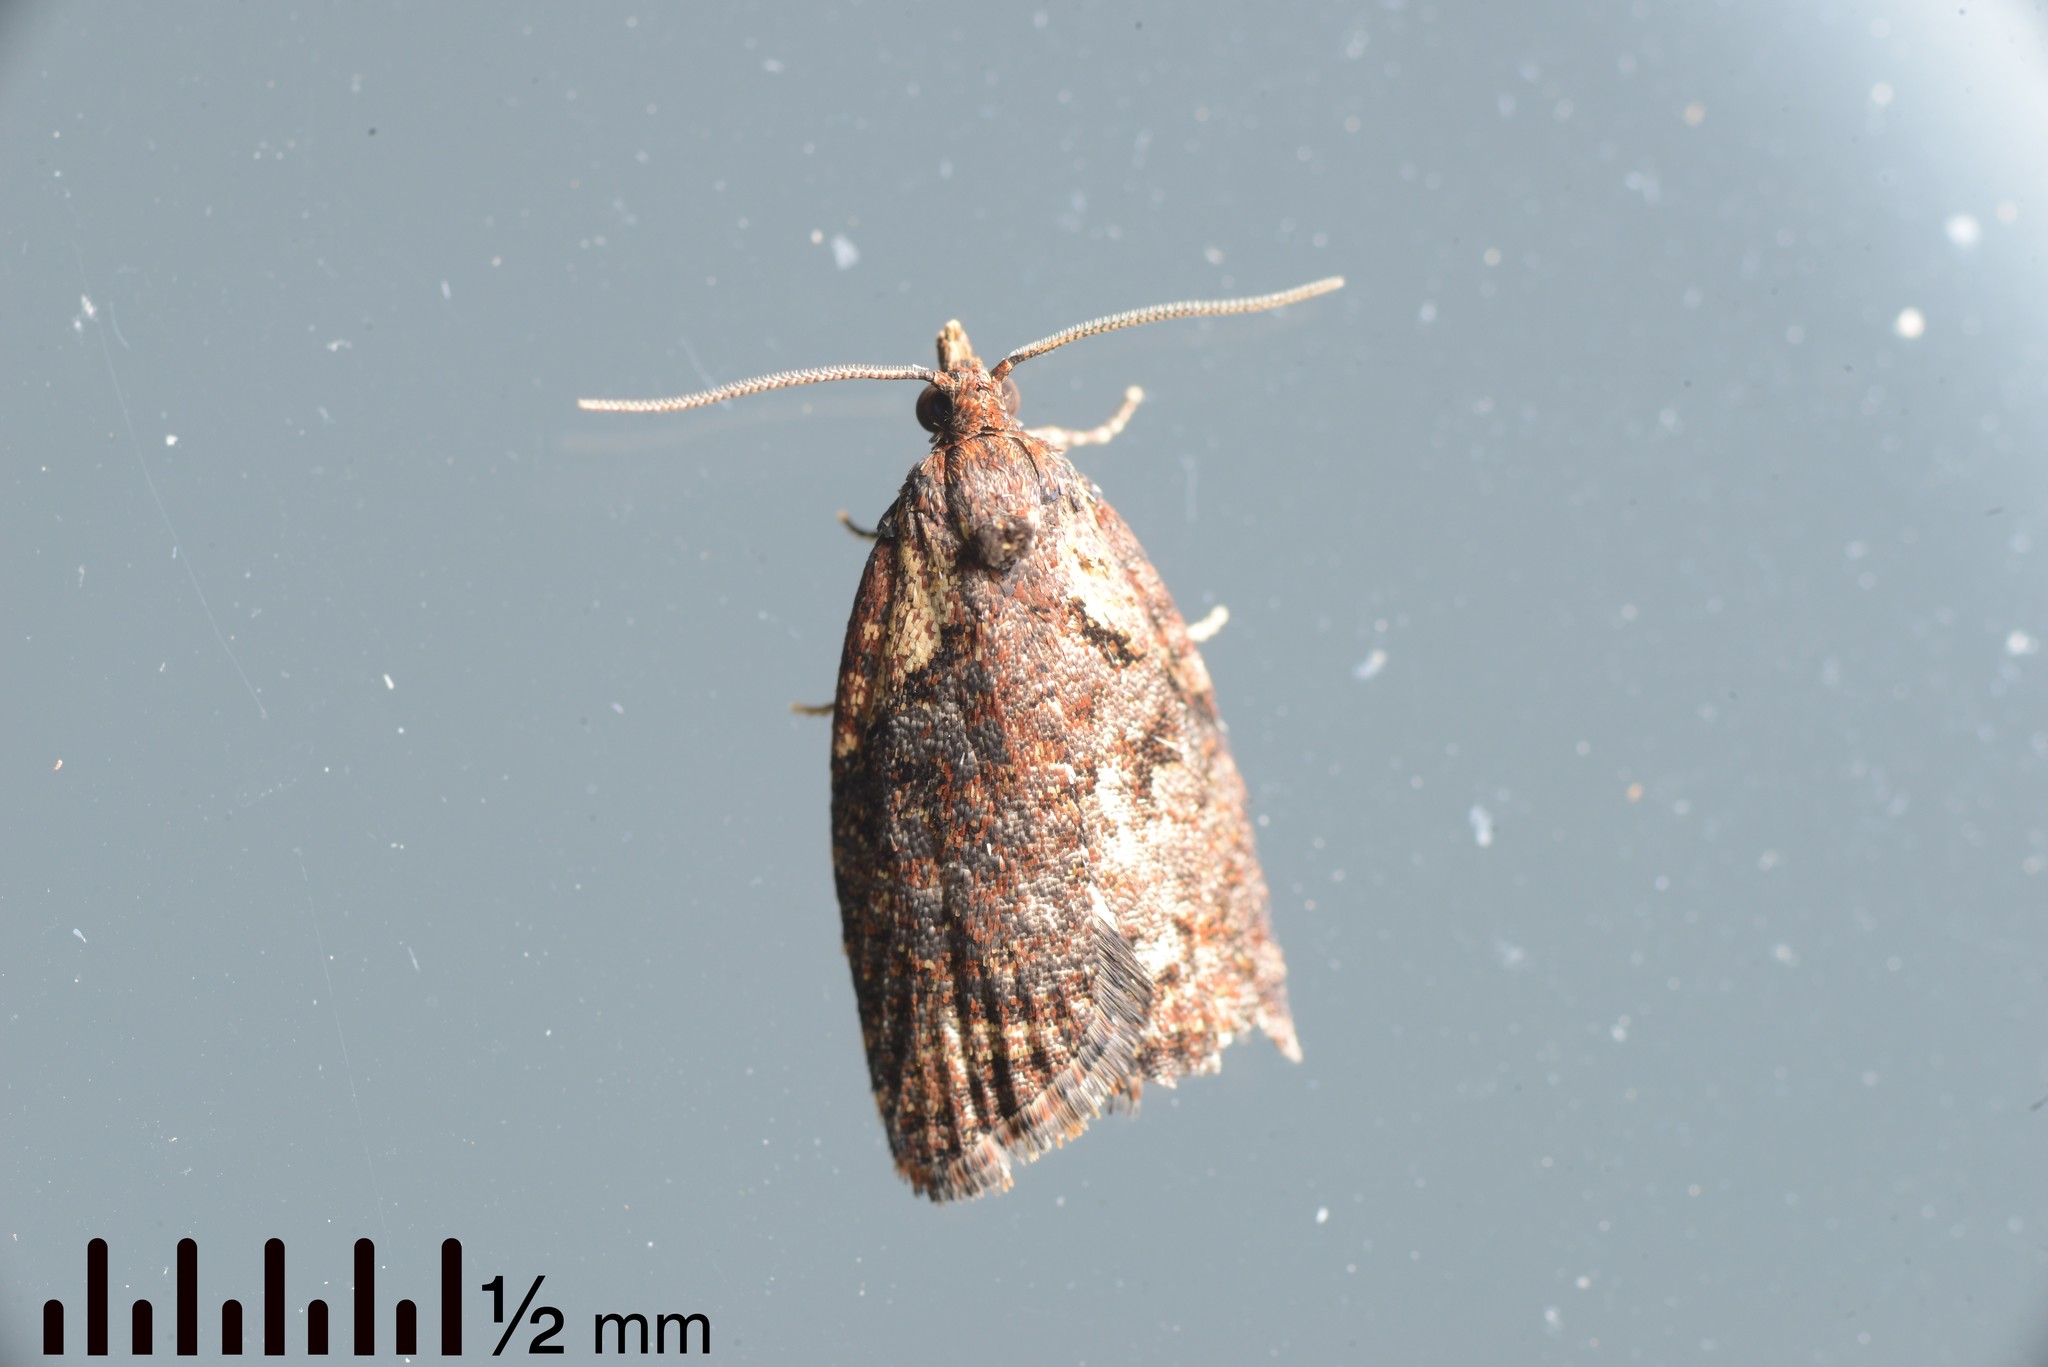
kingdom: Animalia
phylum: Arthropoda
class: Insecta
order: Lepidoptera
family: Tortricidae
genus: Capua
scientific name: Capua intractana
